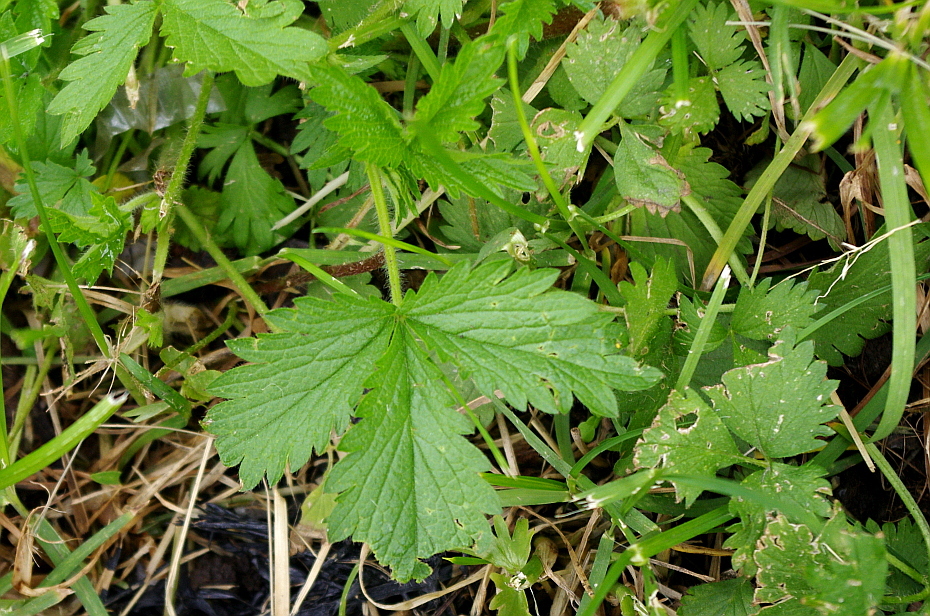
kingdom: Plantae
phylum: Tracheophyta
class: Magnoliopsida
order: Rosales
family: Rosaceae
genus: Potentilla
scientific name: Potentilla norvegica
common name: Ternate-leaved cinquefoil
